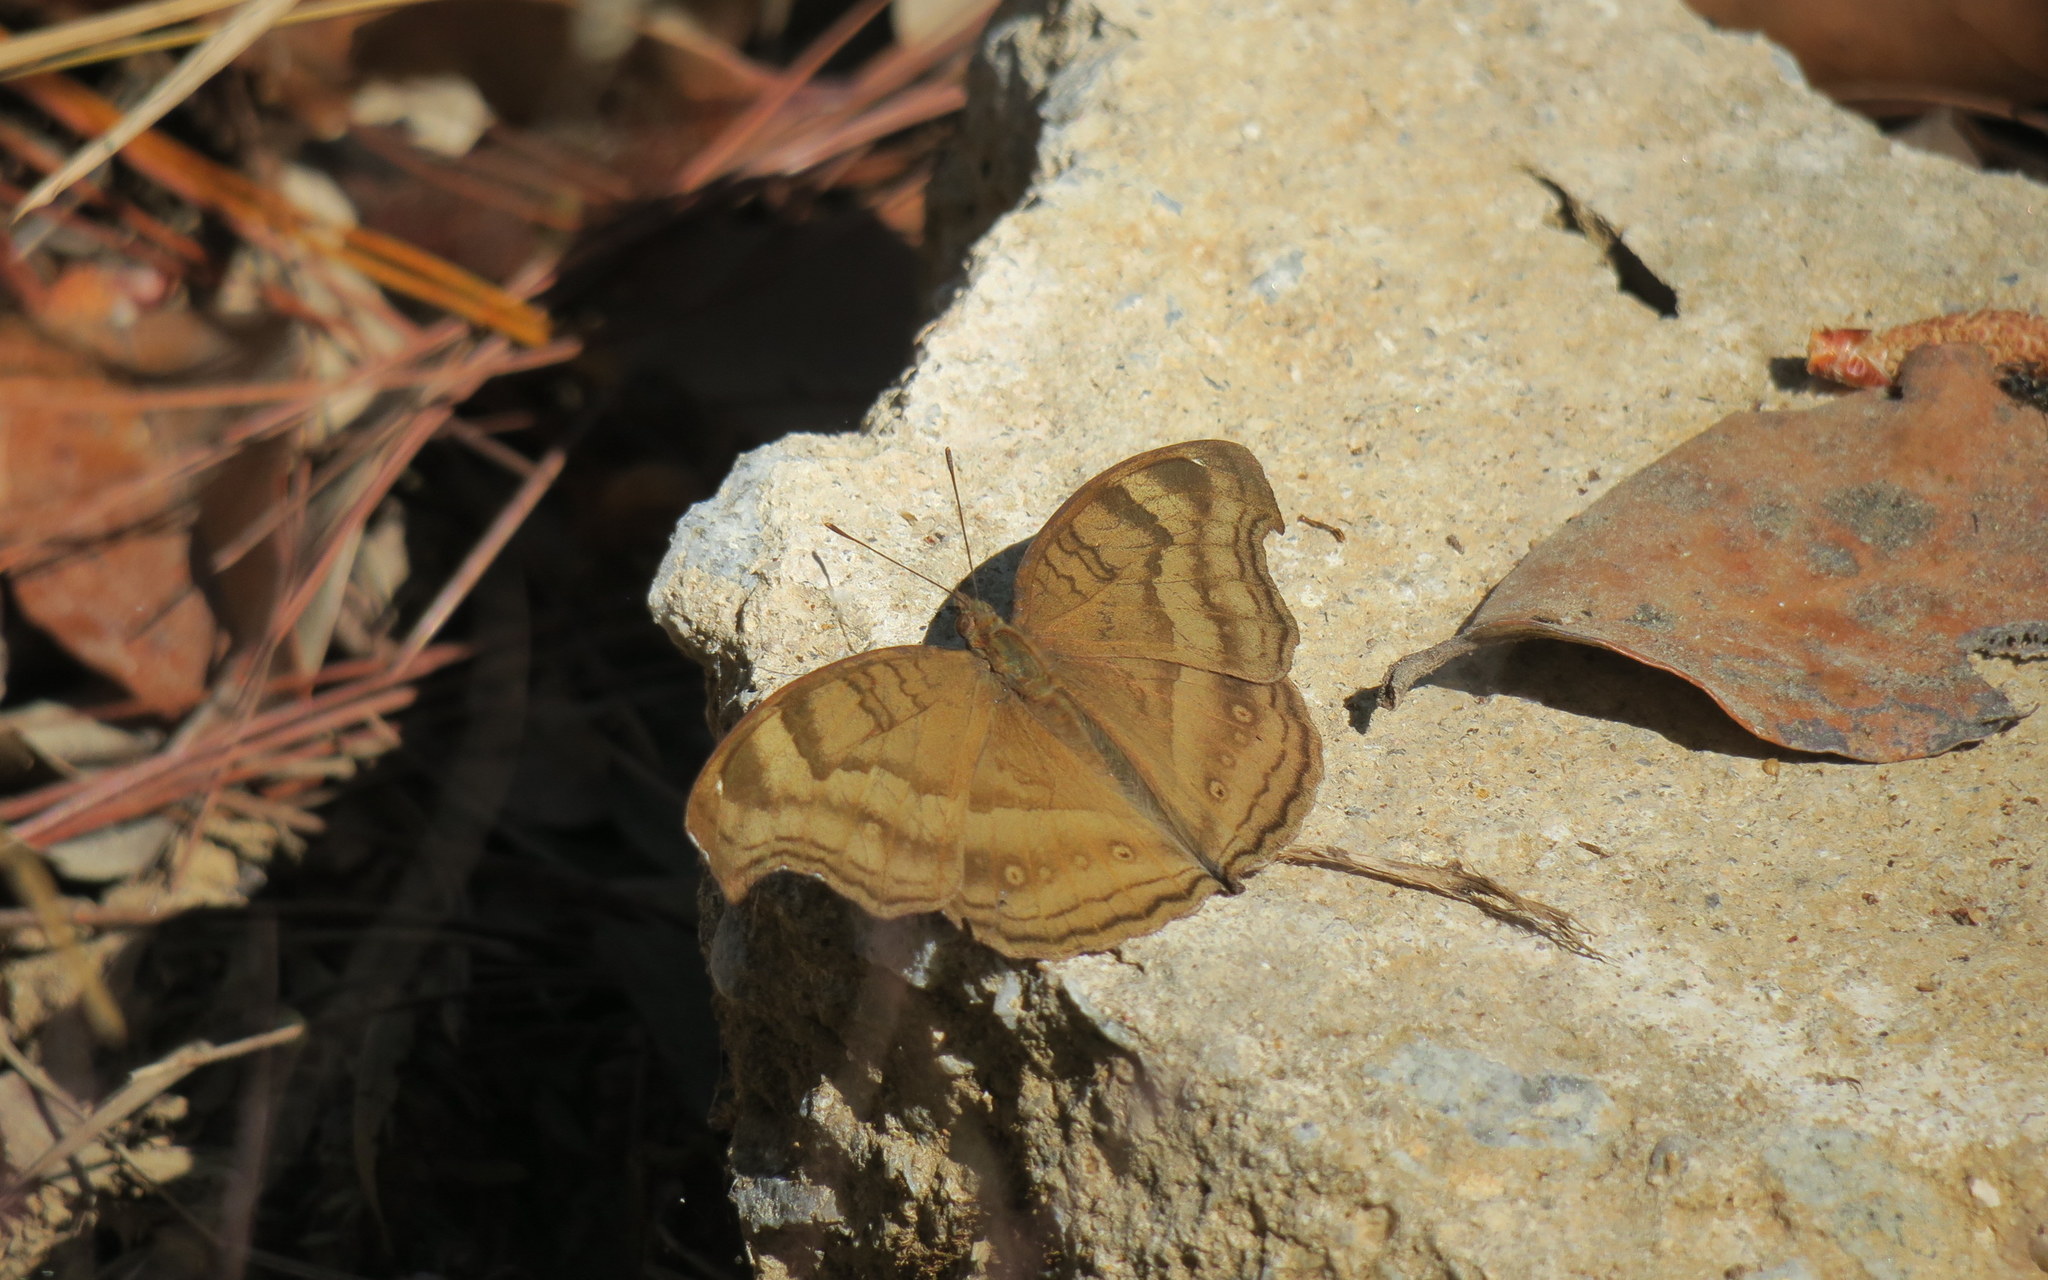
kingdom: Animalia
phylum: Arthropoda
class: Insecta
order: Lepidoptera
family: Nymphalidae
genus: Junonia
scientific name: Junonia iphita
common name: Chocolate pansy
